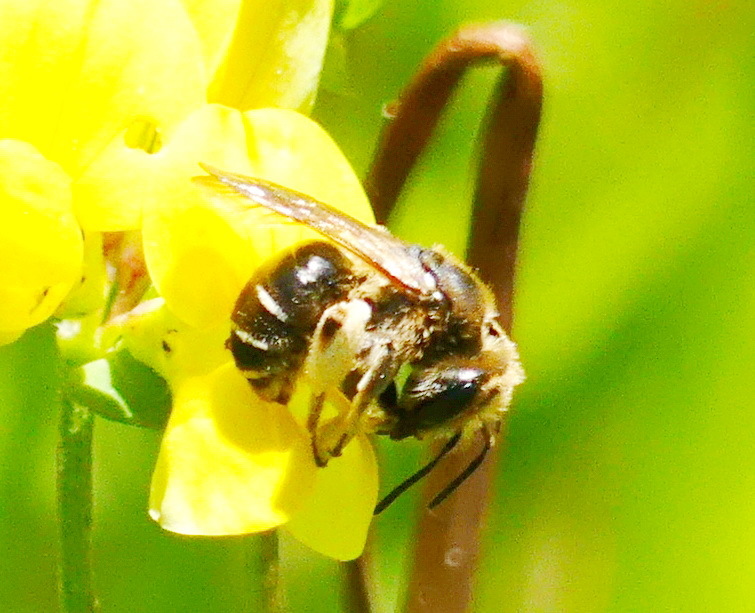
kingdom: Animalia
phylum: Arthropoda
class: Insecta
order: Hymenoptera
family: Andrenidae
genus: Andrena
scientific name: Andrena wilkella
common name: Wilke's mining bee
